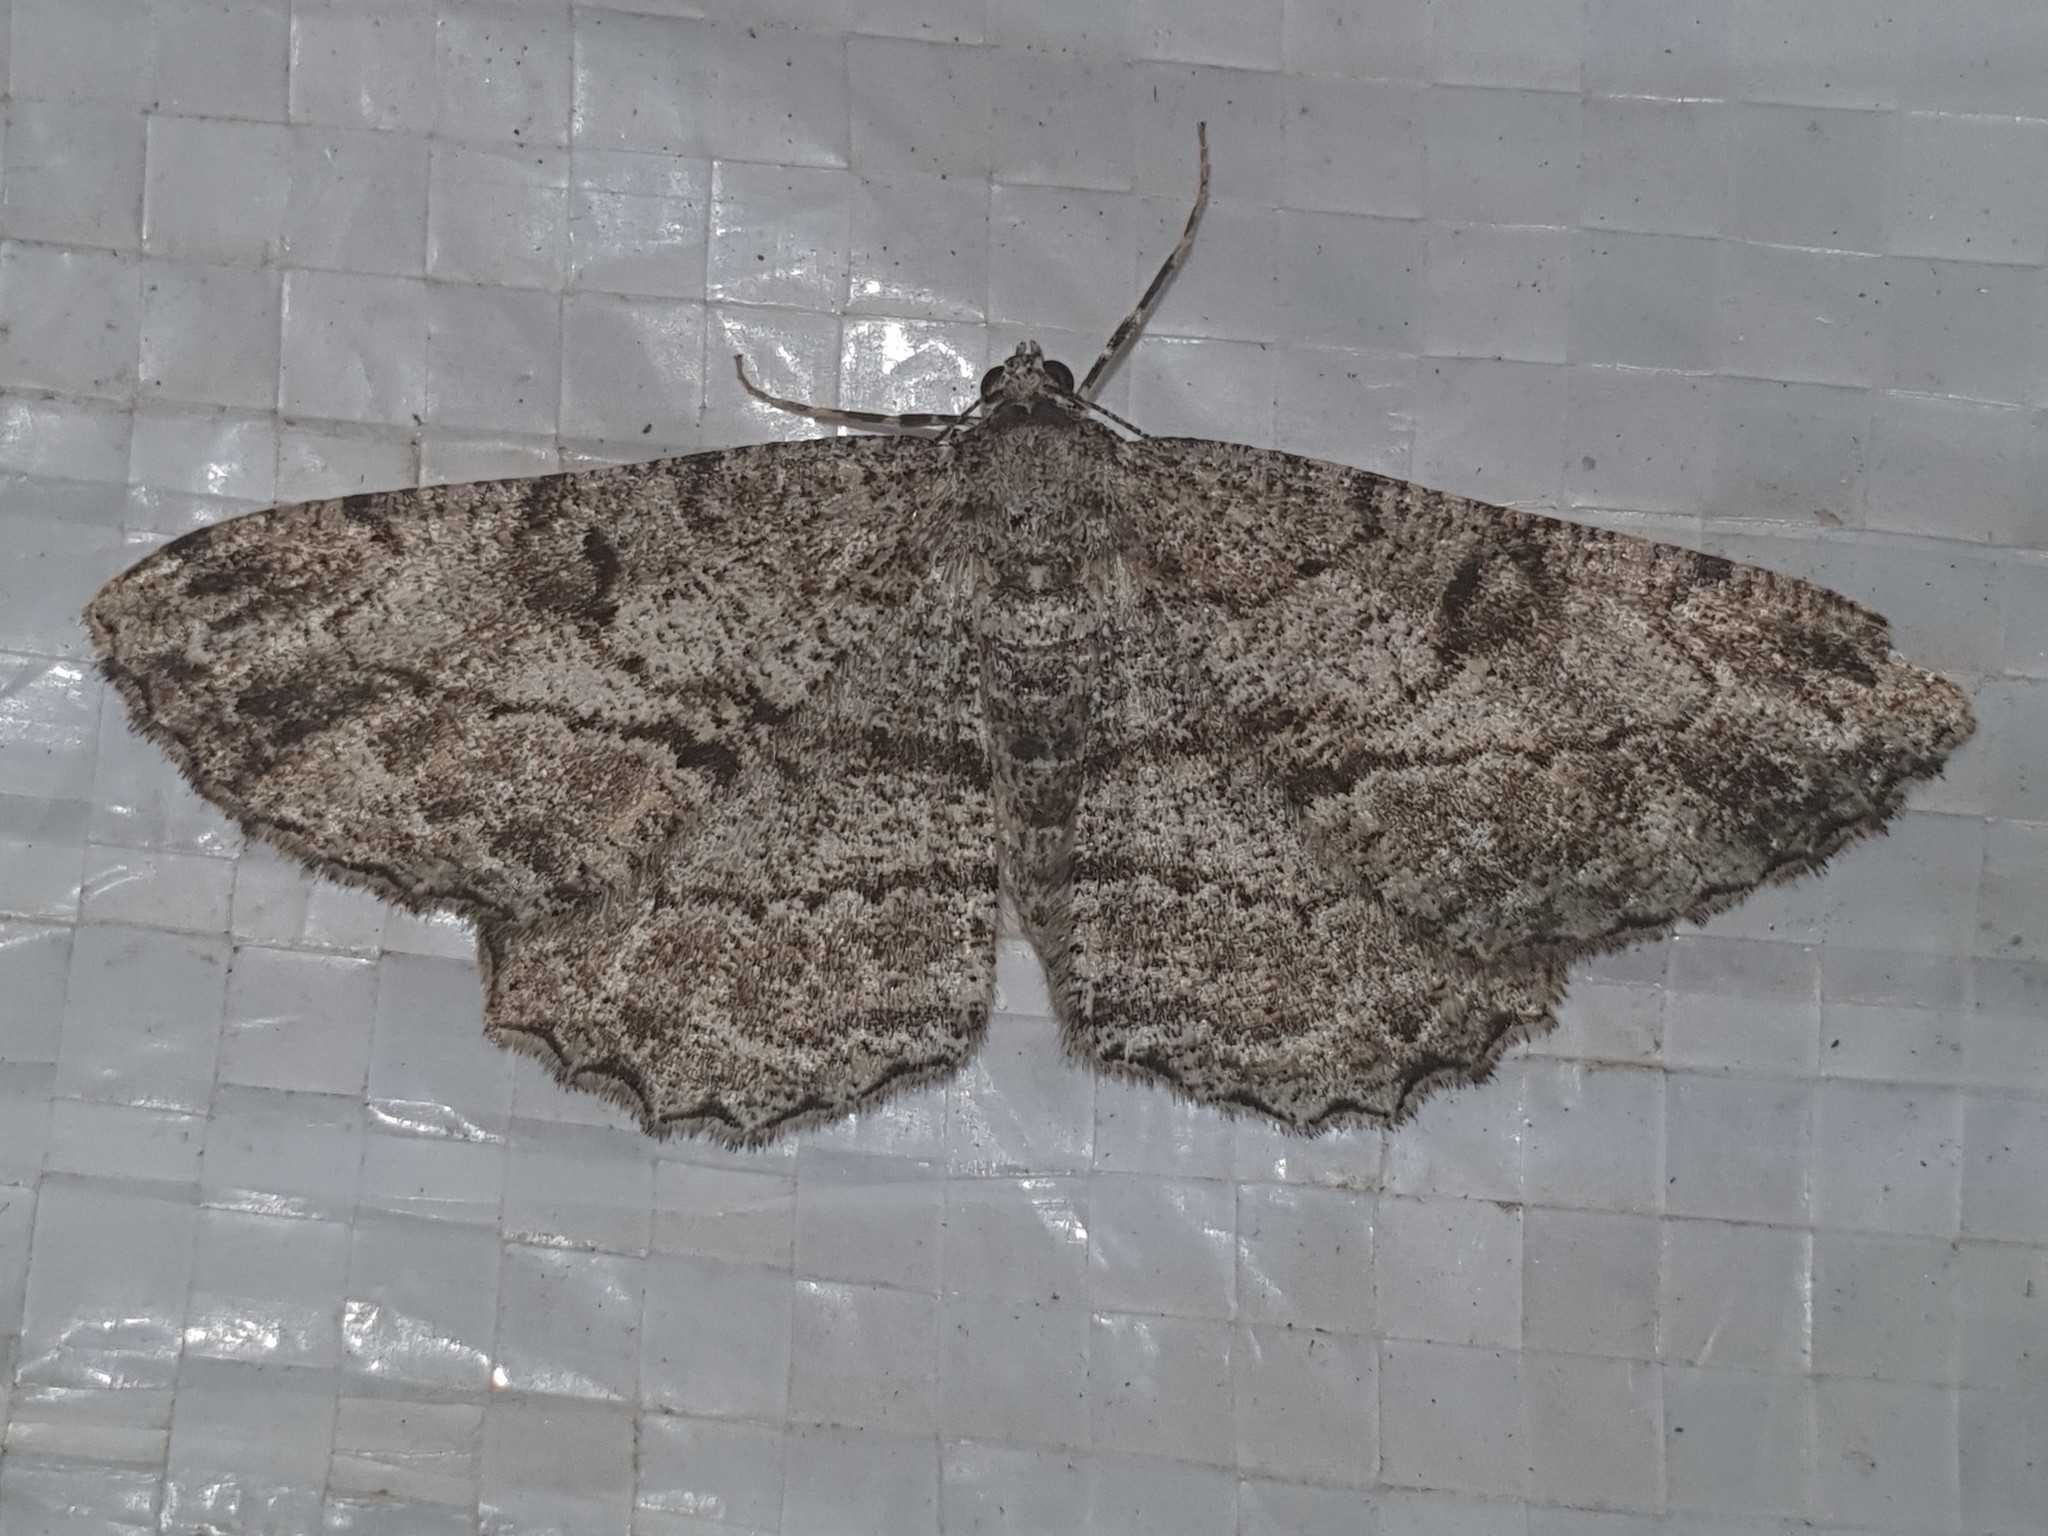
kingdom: Animalia
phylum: Arthropoda
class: Insecta
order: Lepidoptera
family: Geometridae
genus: Peribatodes
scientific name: Peribatodes rhomboidaria
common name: Willow beauty
